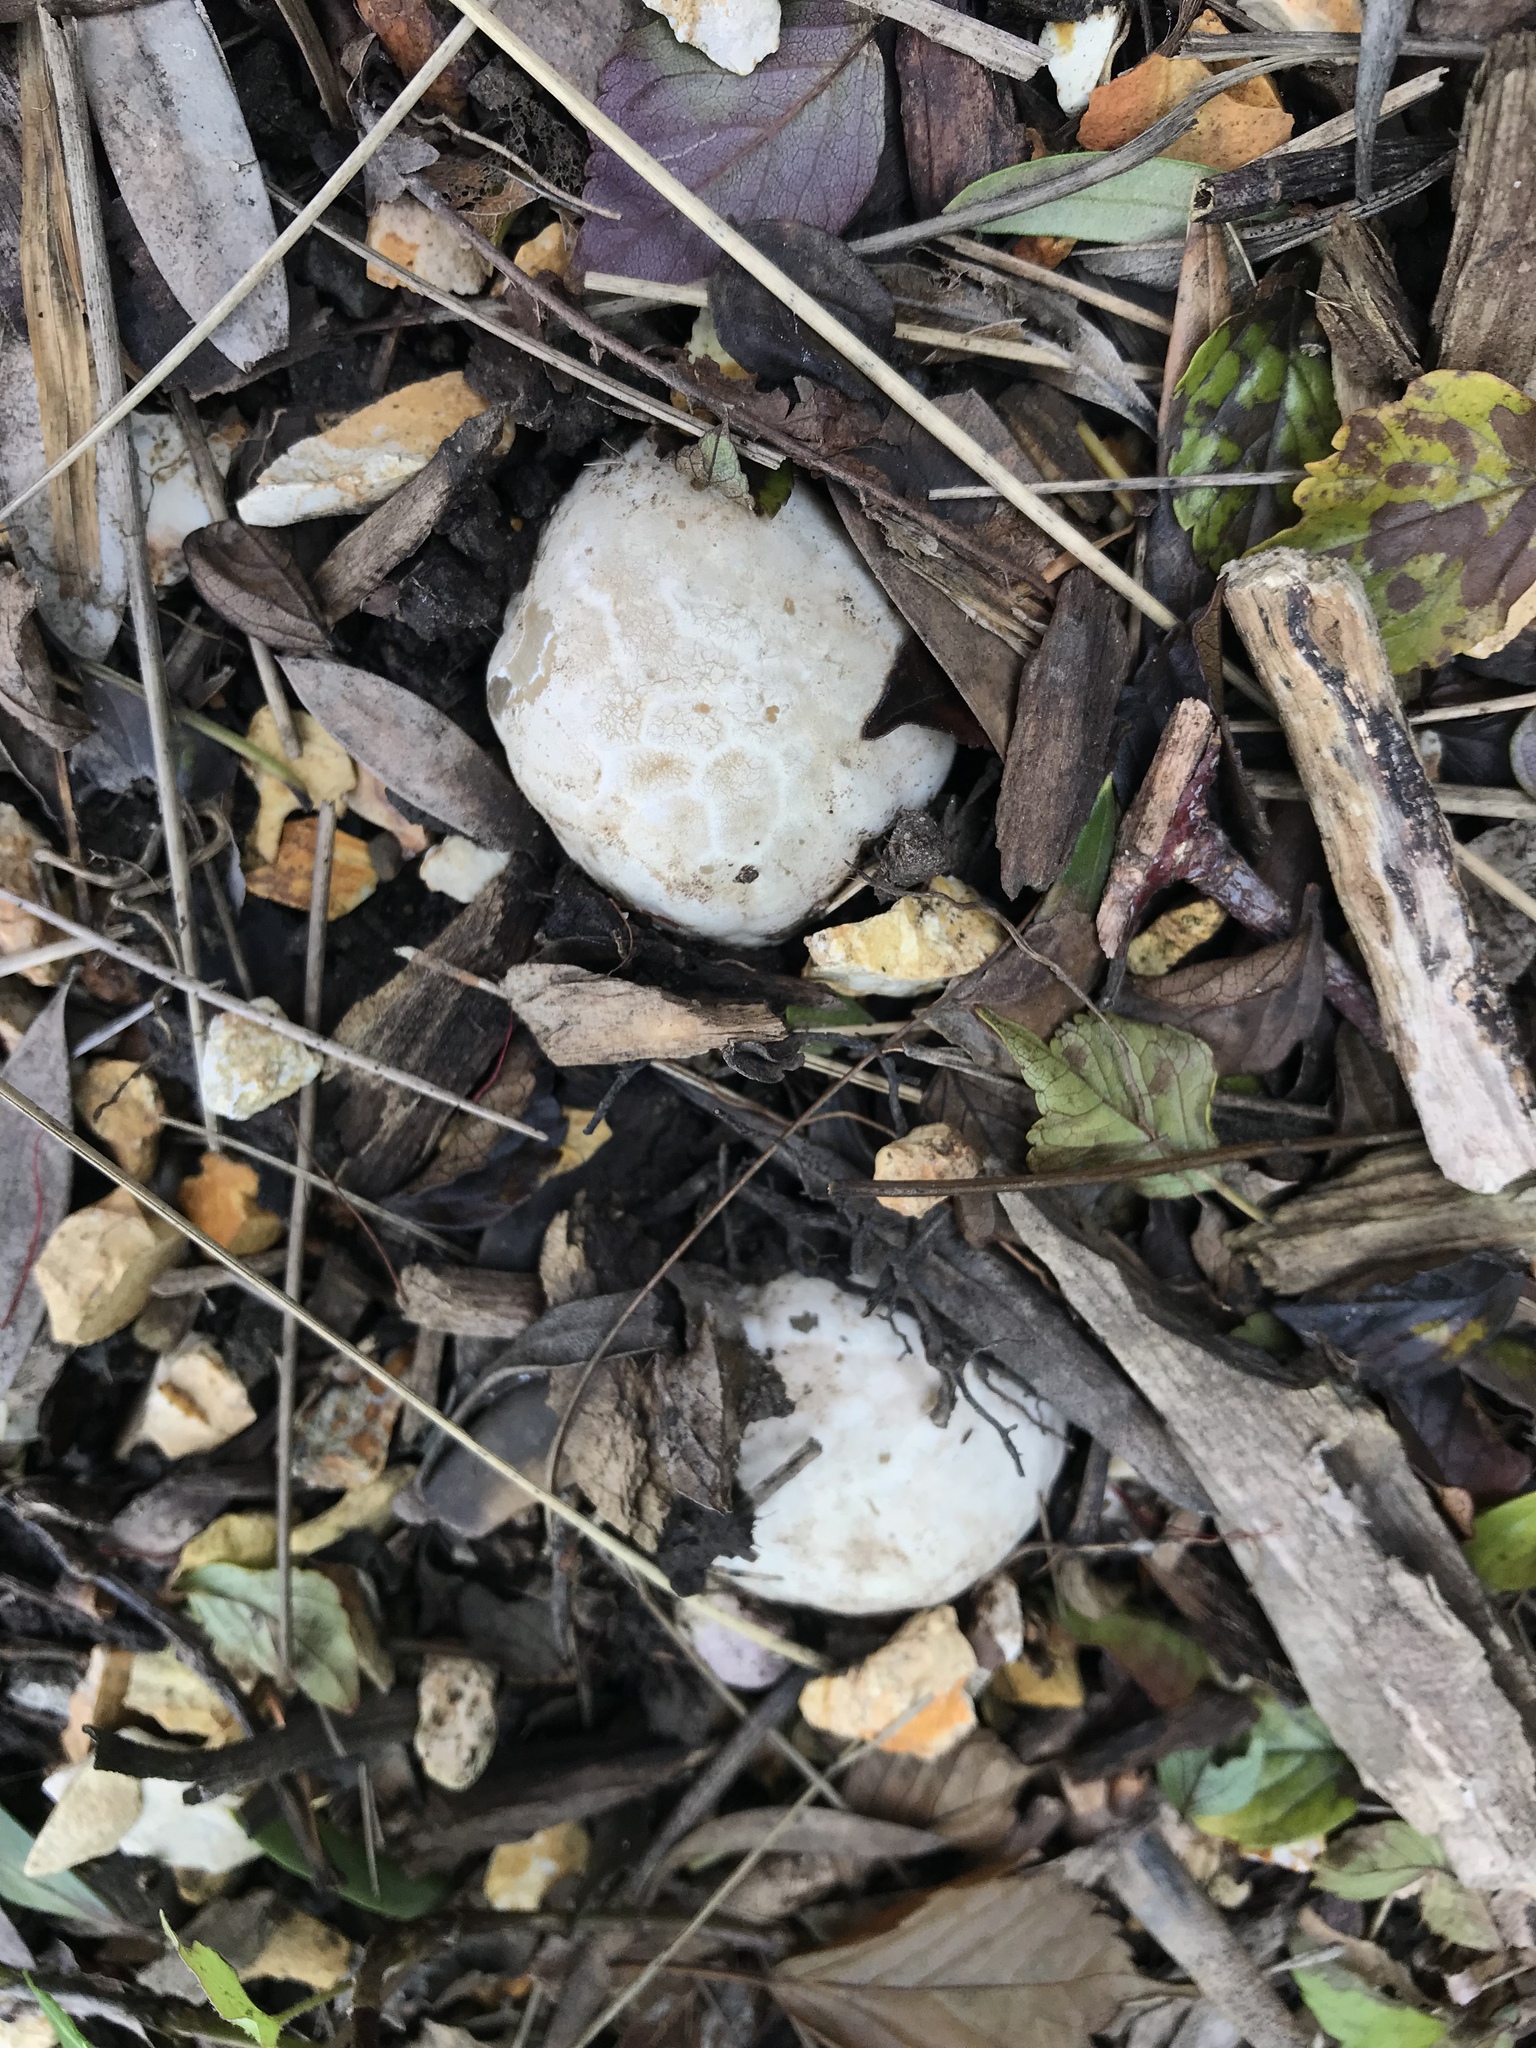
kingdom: Fungi
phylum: Basidiomycota
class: Agaricomycetes
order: Phallales
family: Phallaceae
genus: Clathrus
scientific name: Clathrus ruber
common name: Red cage
